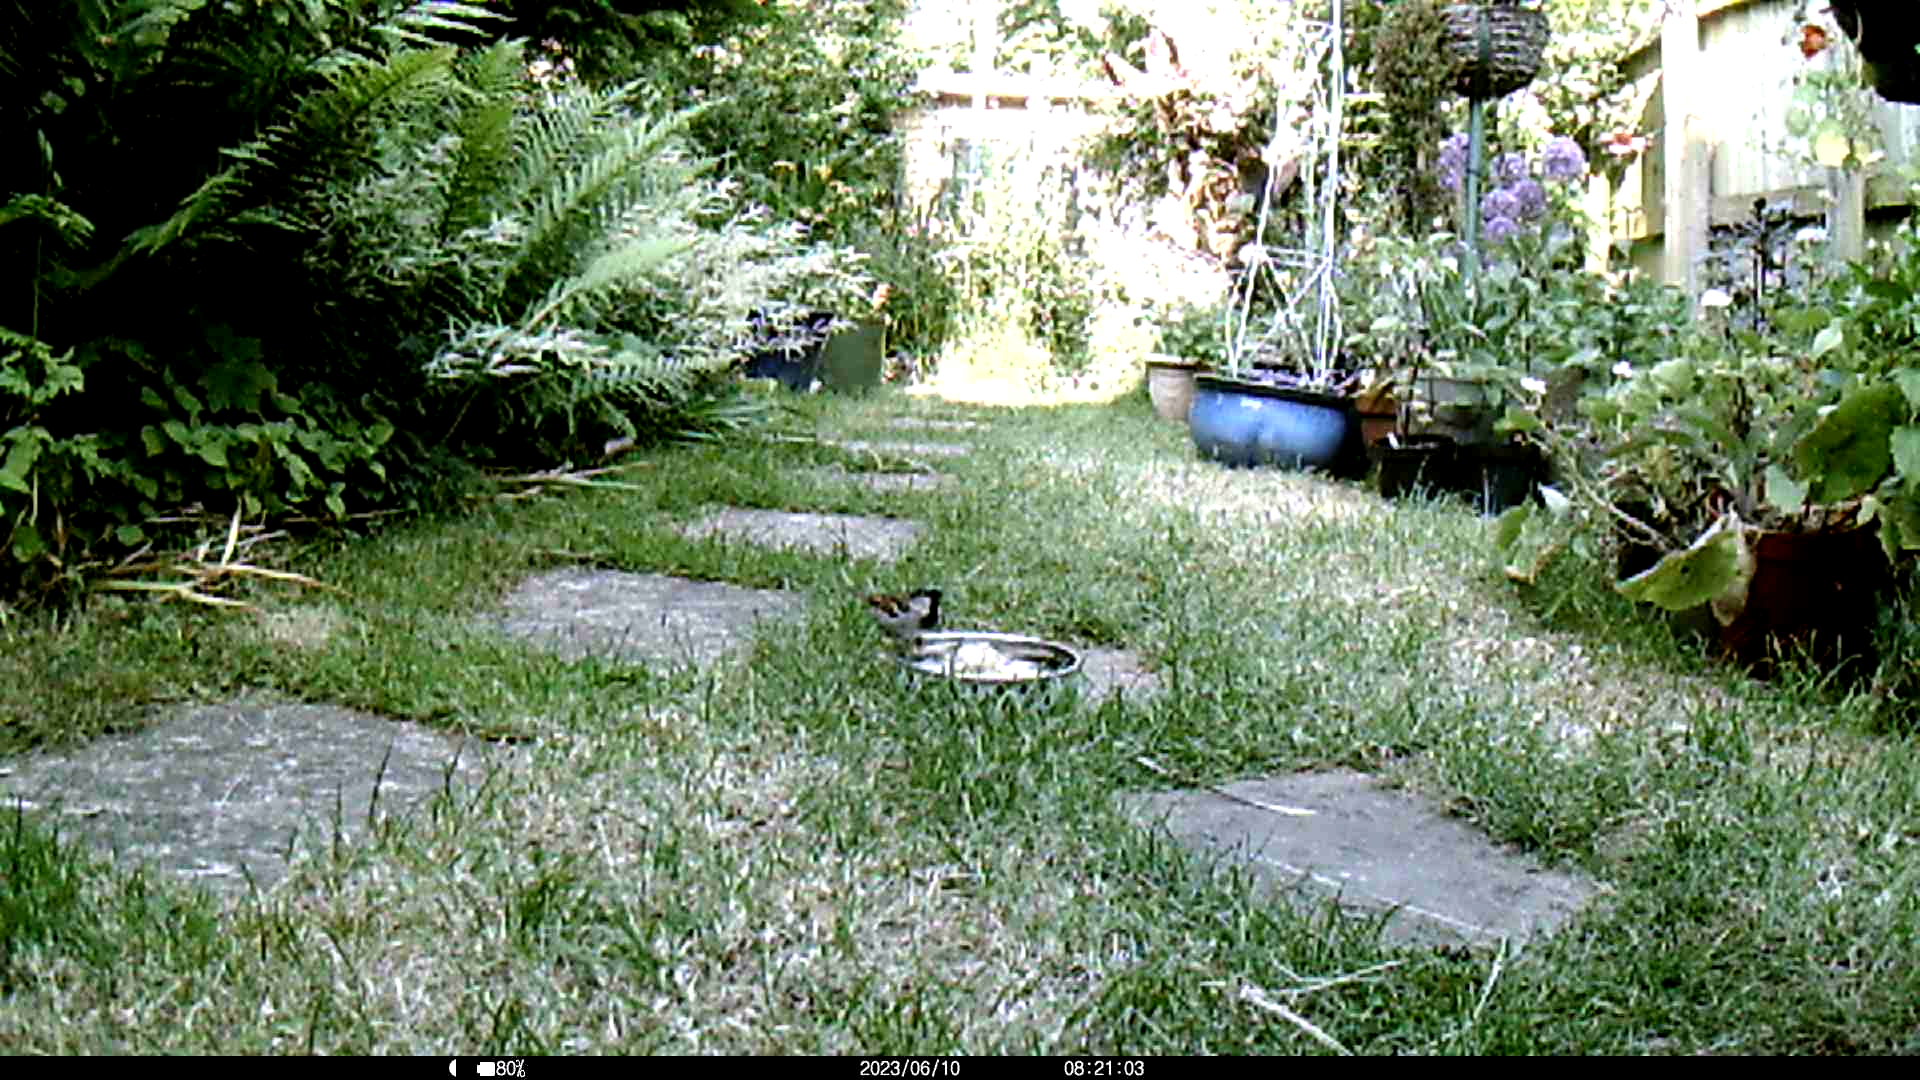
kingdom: Animalia
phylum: Chordata
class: Aves
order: Passeriformes
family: Passeridae
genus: Passer
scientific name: Passer domesticus
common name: House sparrow
